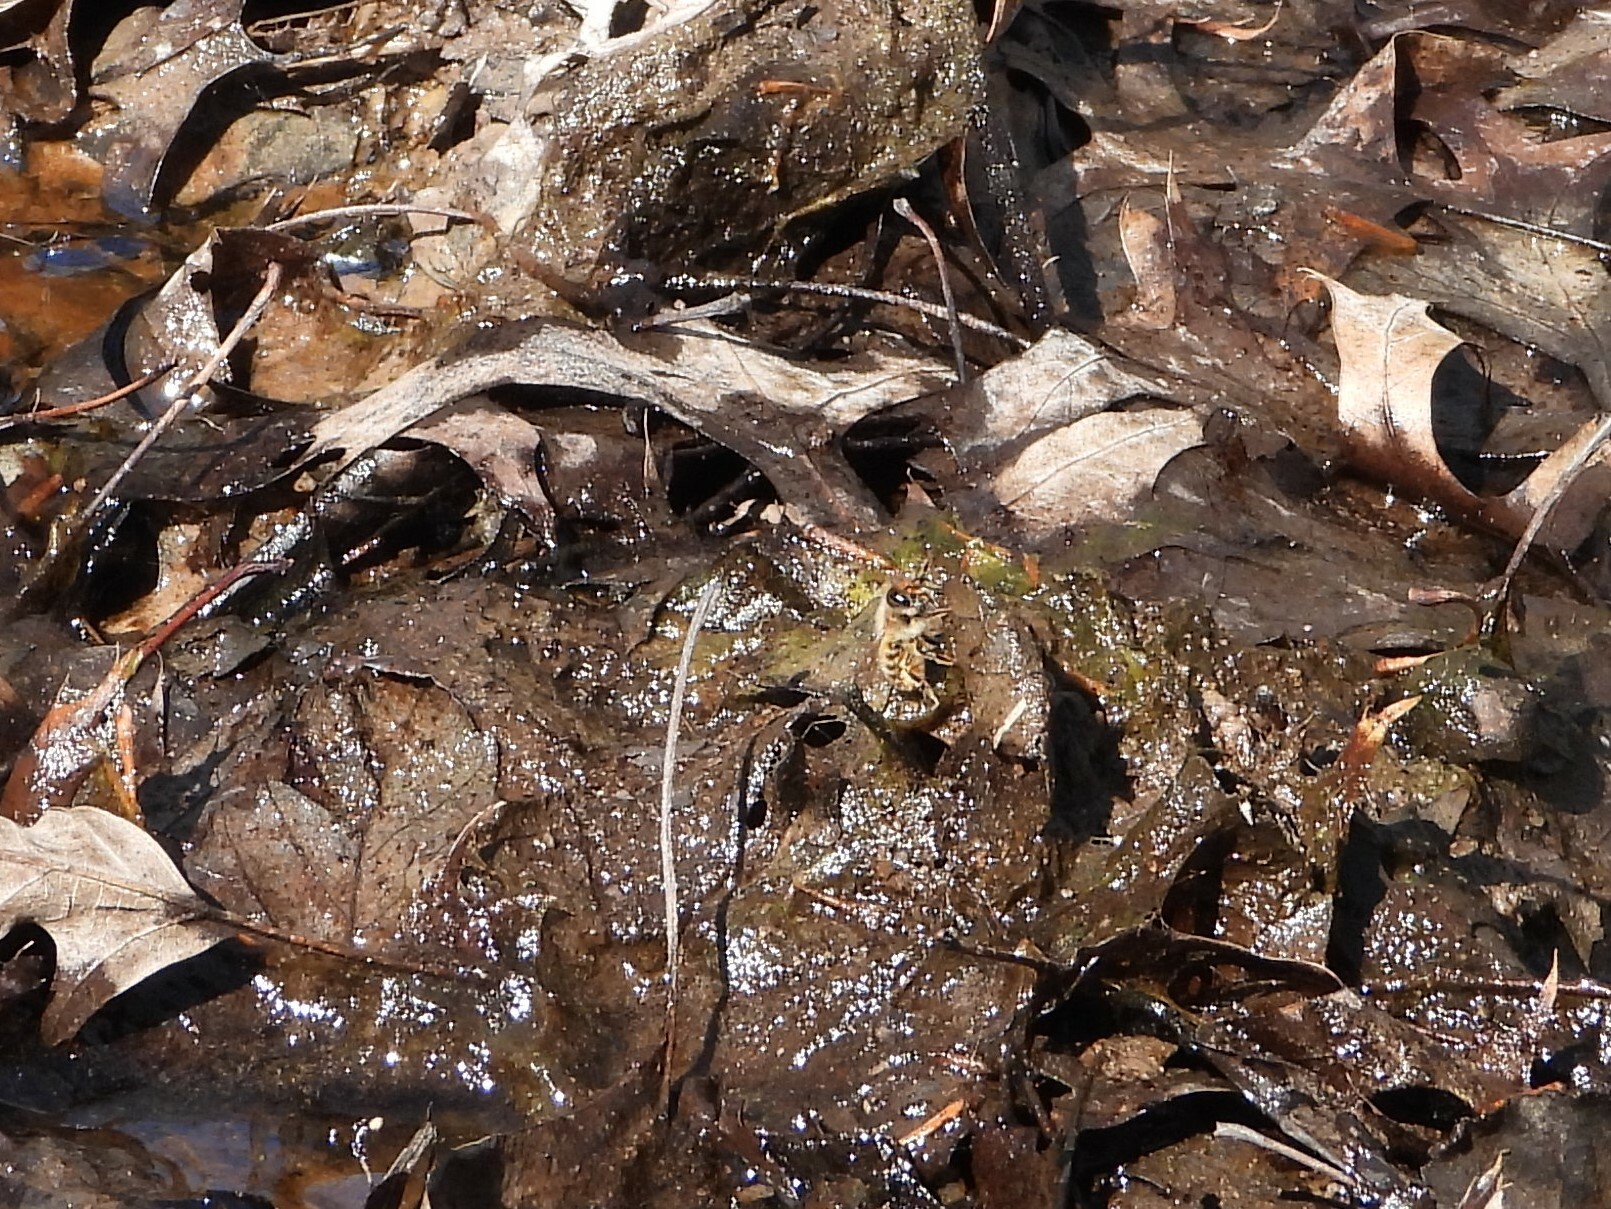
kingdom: Animalia
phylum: Arthropoda
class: Insecta
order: Hymenoptera
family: Megachilidae
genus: Osmia
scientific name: Osmia cornifrons
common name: Horn-faced bee
